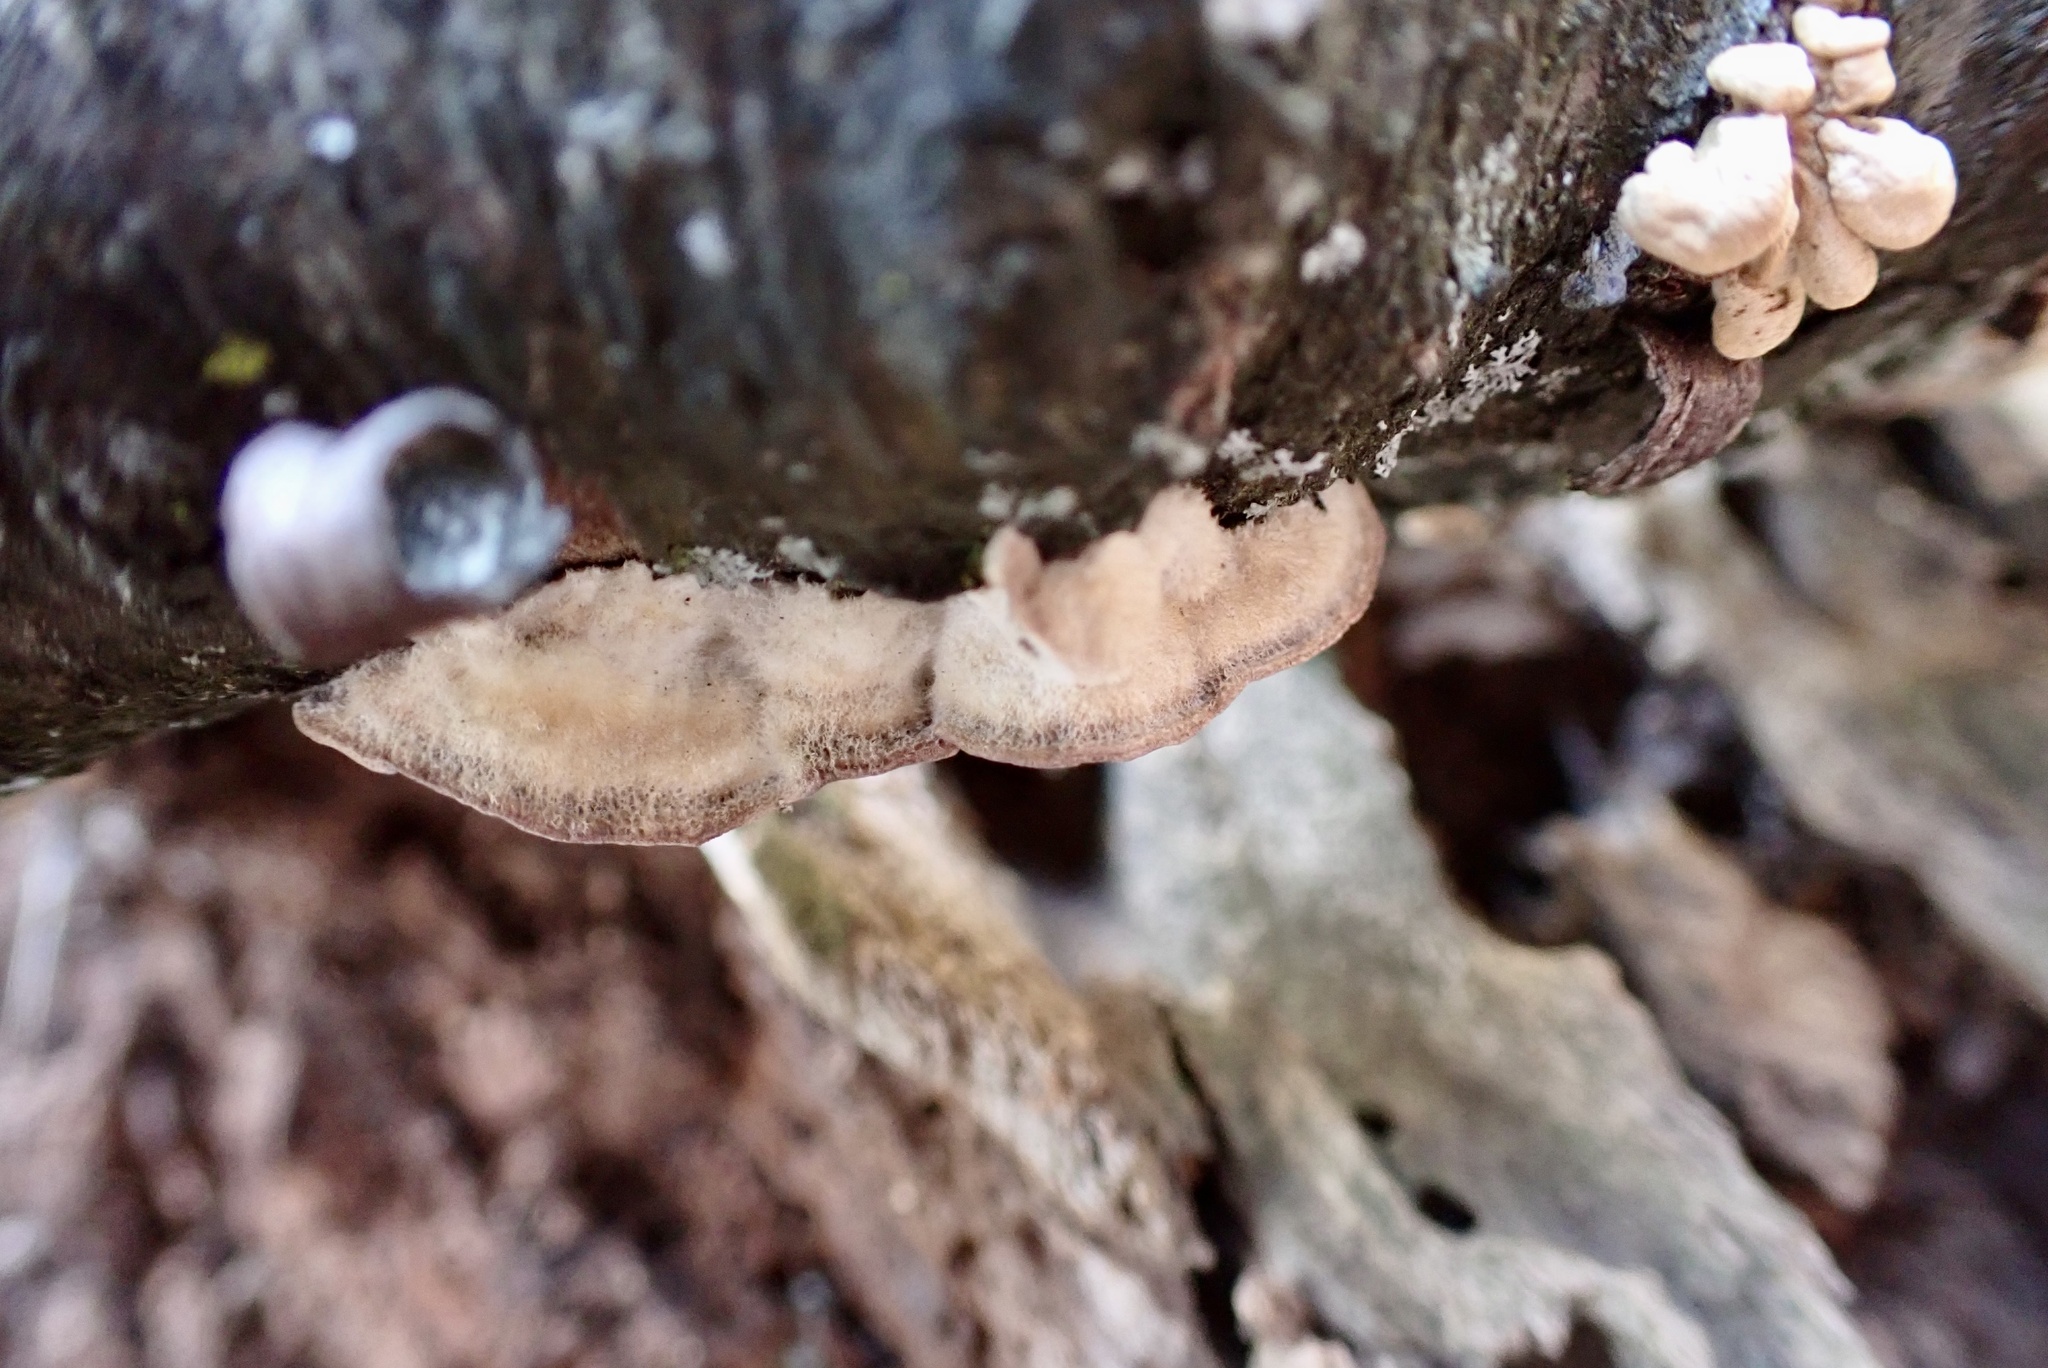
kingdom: Fungi
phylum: Basidiomycota
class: Agaricomycetes
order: Hymenochaetales
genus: Trichaptum
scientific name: Trichaptum biforme
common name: Violet-toothed polypore
